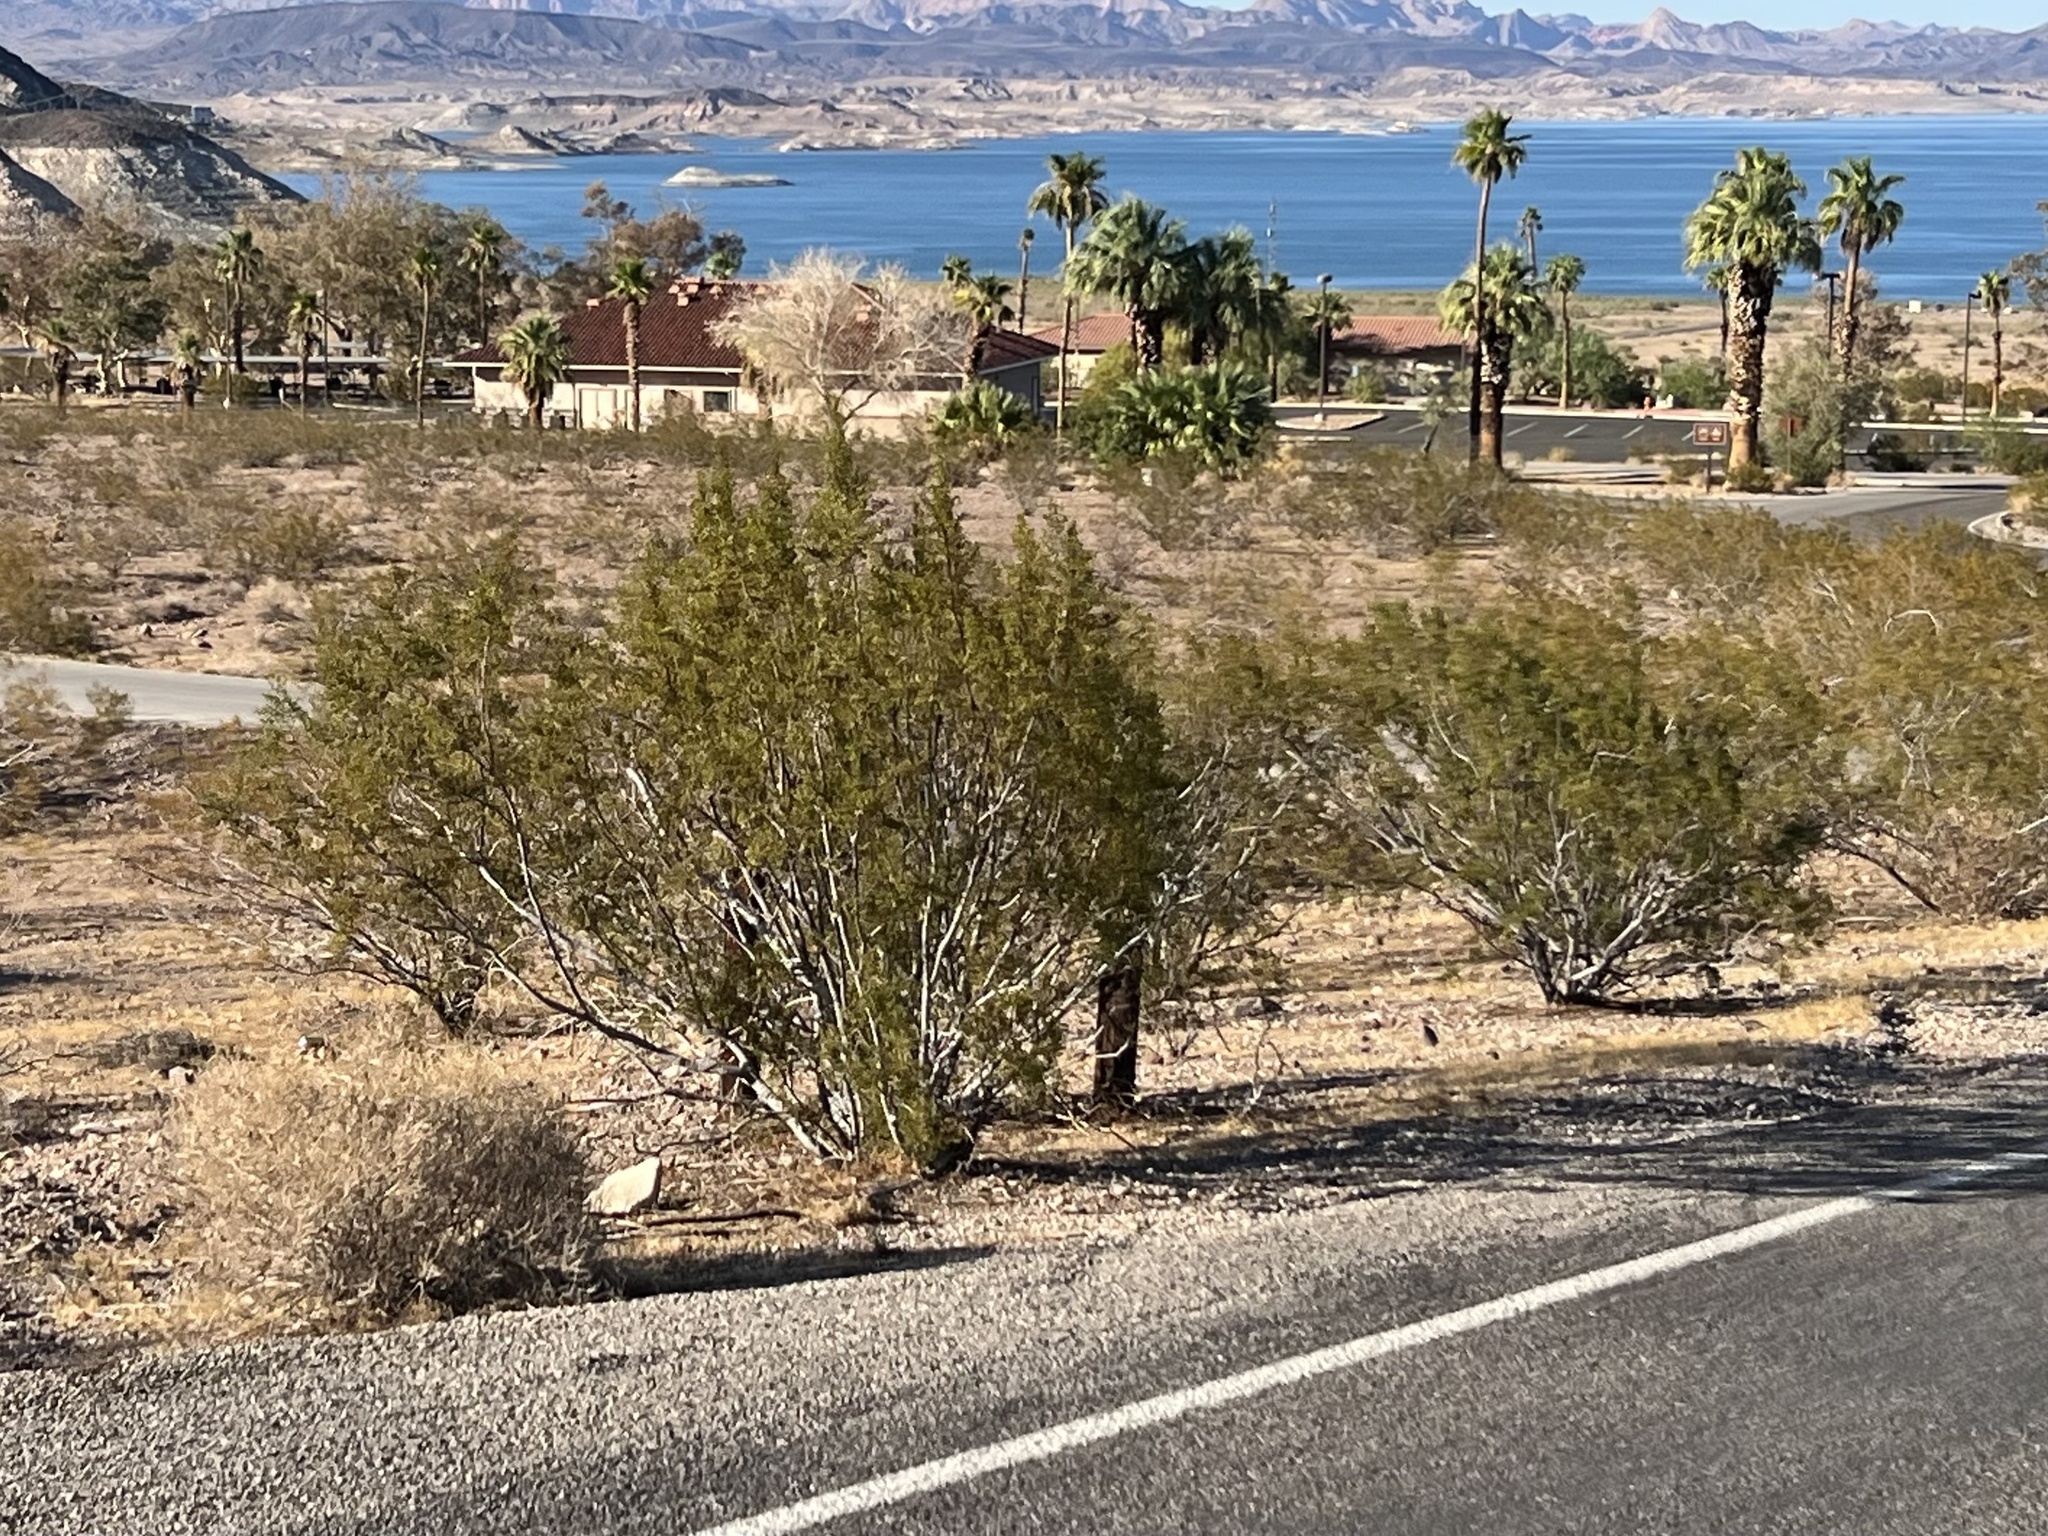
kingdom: Plantae
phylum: Tracheophyta
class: Magnoliopsida
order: Zygophyllales
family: Zygophyllaceae
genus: Larrea
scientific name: Larrea tridentata
